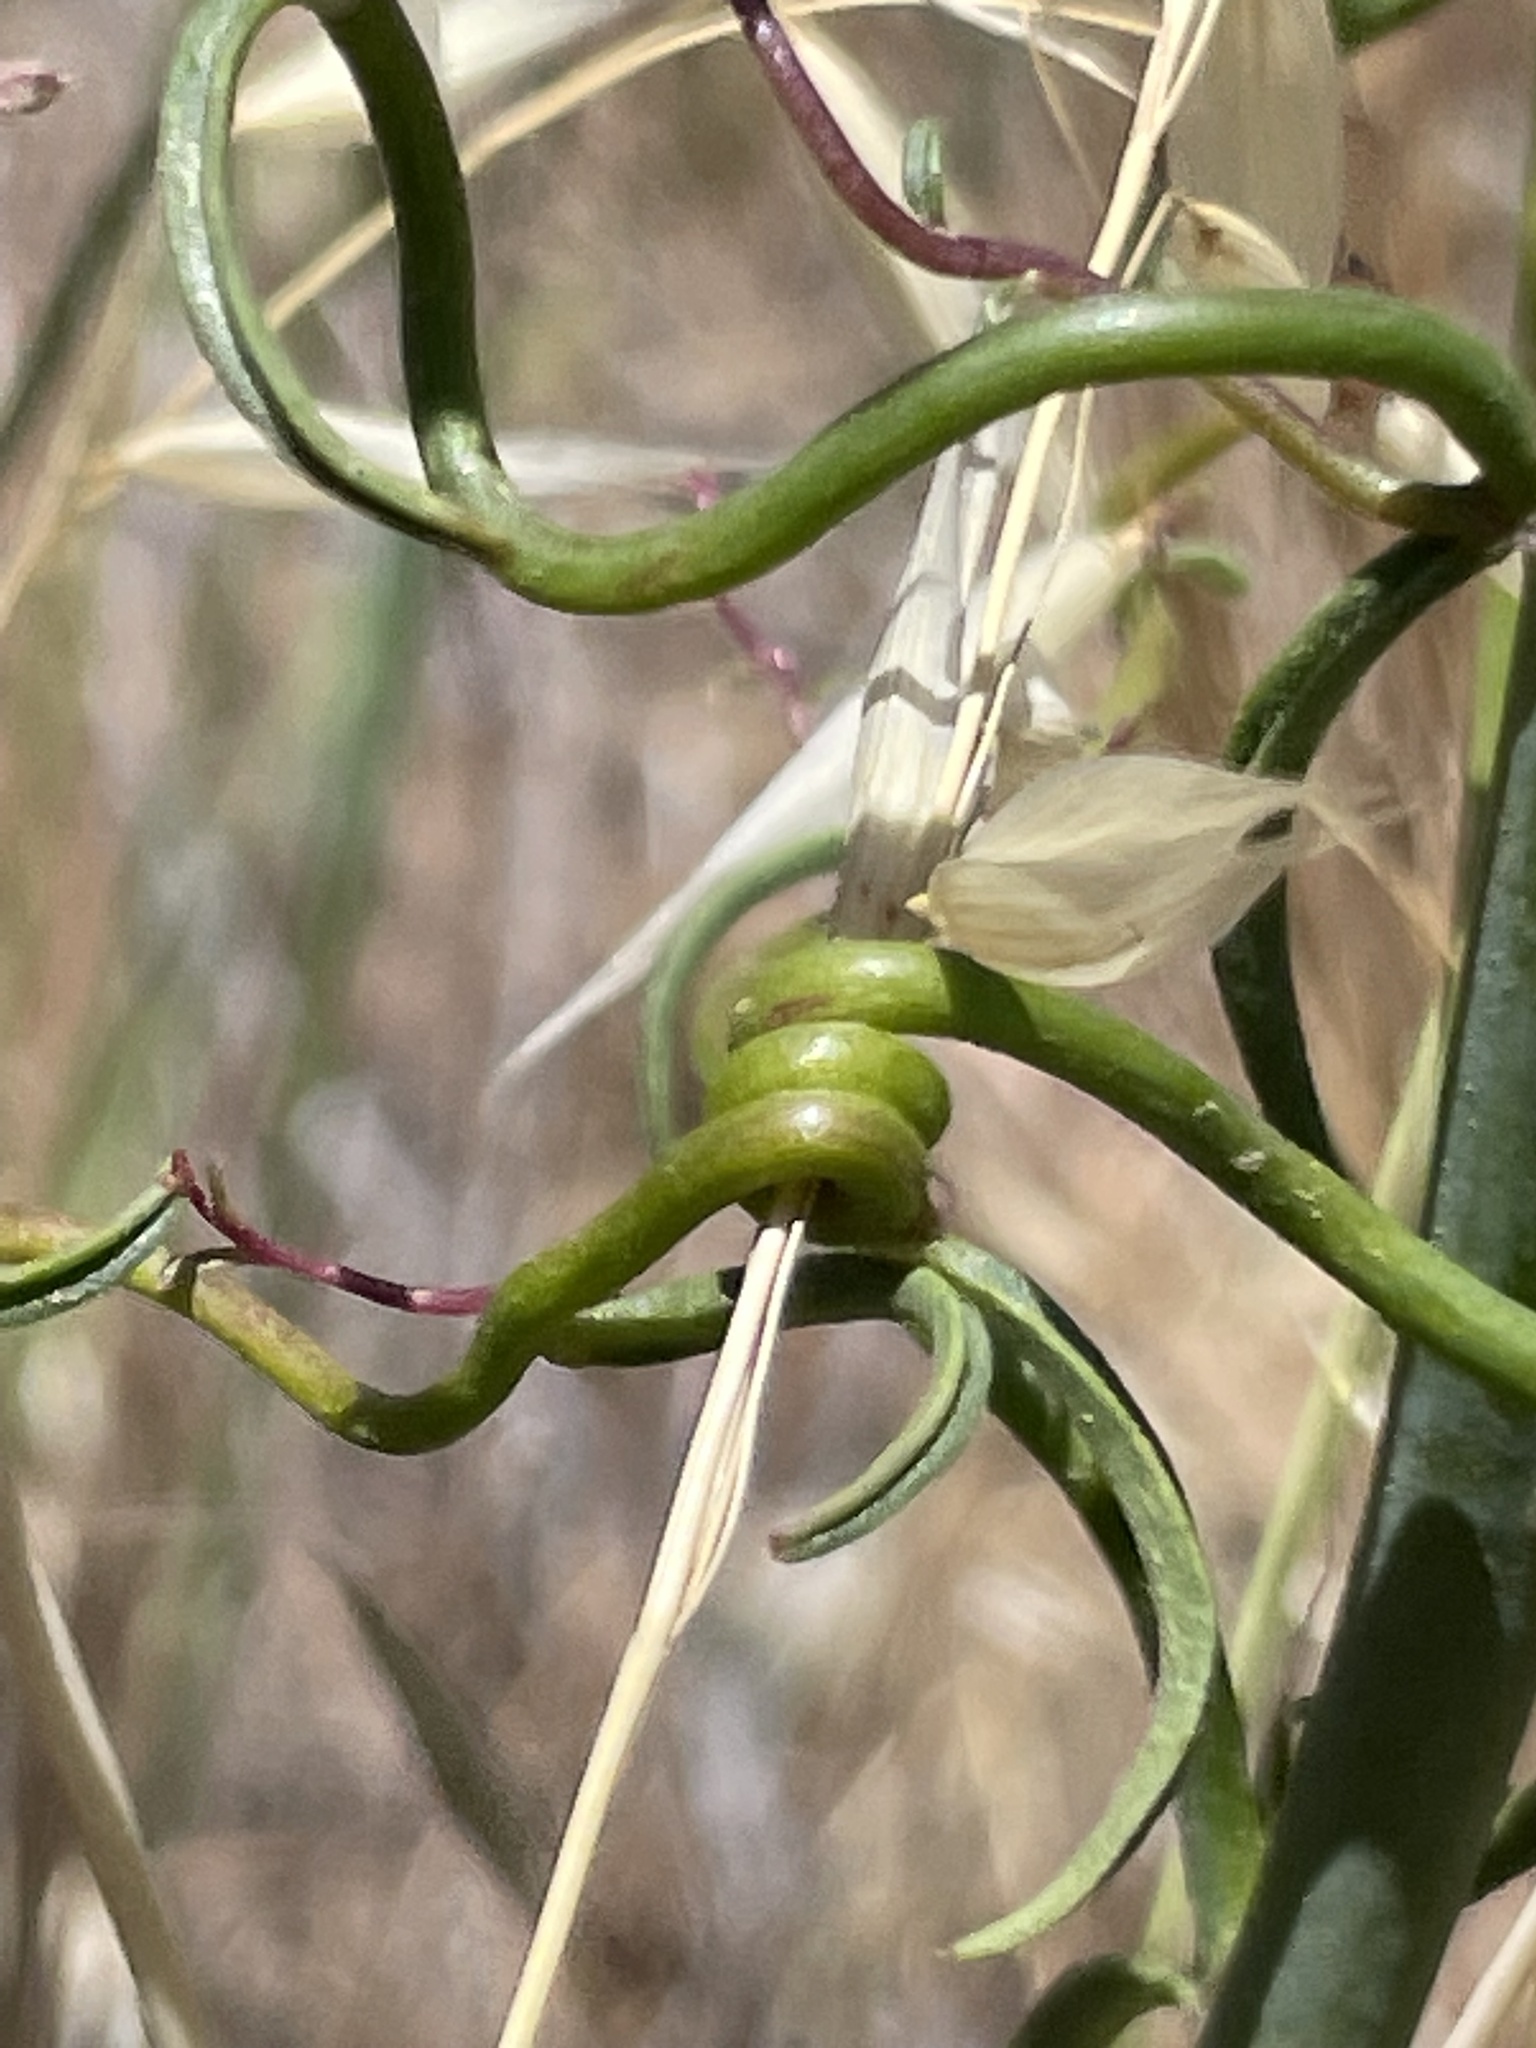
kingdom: Plantae
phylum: Tracheophyta
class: Magnoliopsida
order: Lamiales
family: Plantaginaceae
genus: Sairocarpus
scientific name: Sairocarpus coulterianus
